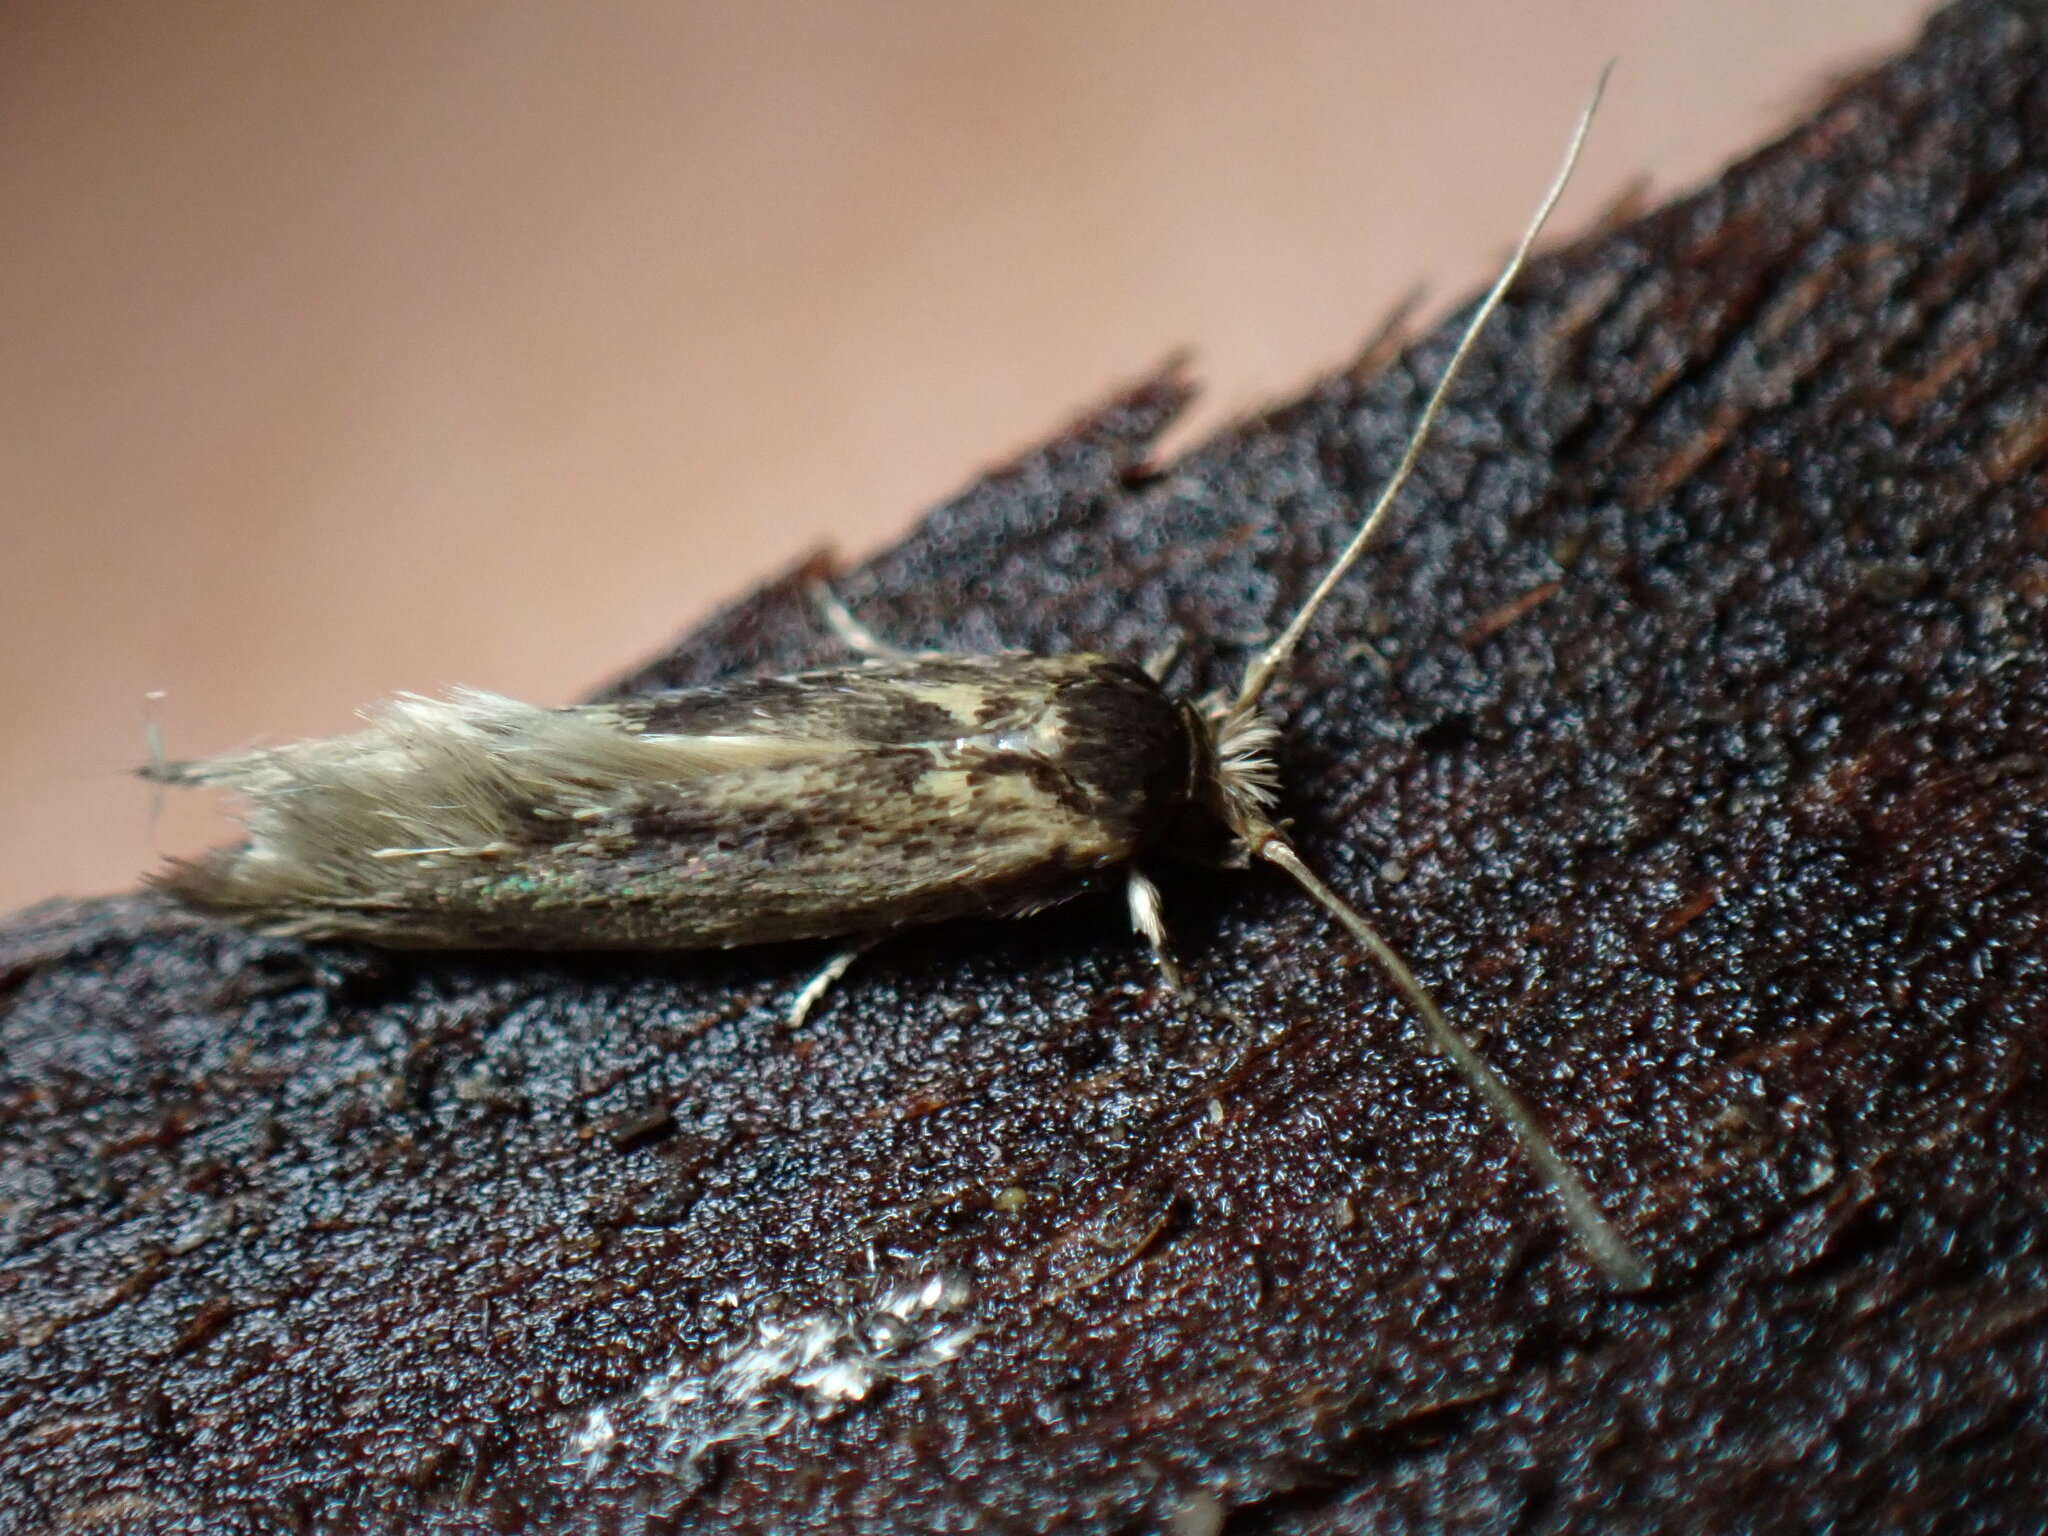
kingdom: Animalia
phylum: Arthropoda
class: Insecta
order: Lepidoptera
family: Tineidae
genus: Opogona
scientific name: Opogona omoscopa
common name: Moth
